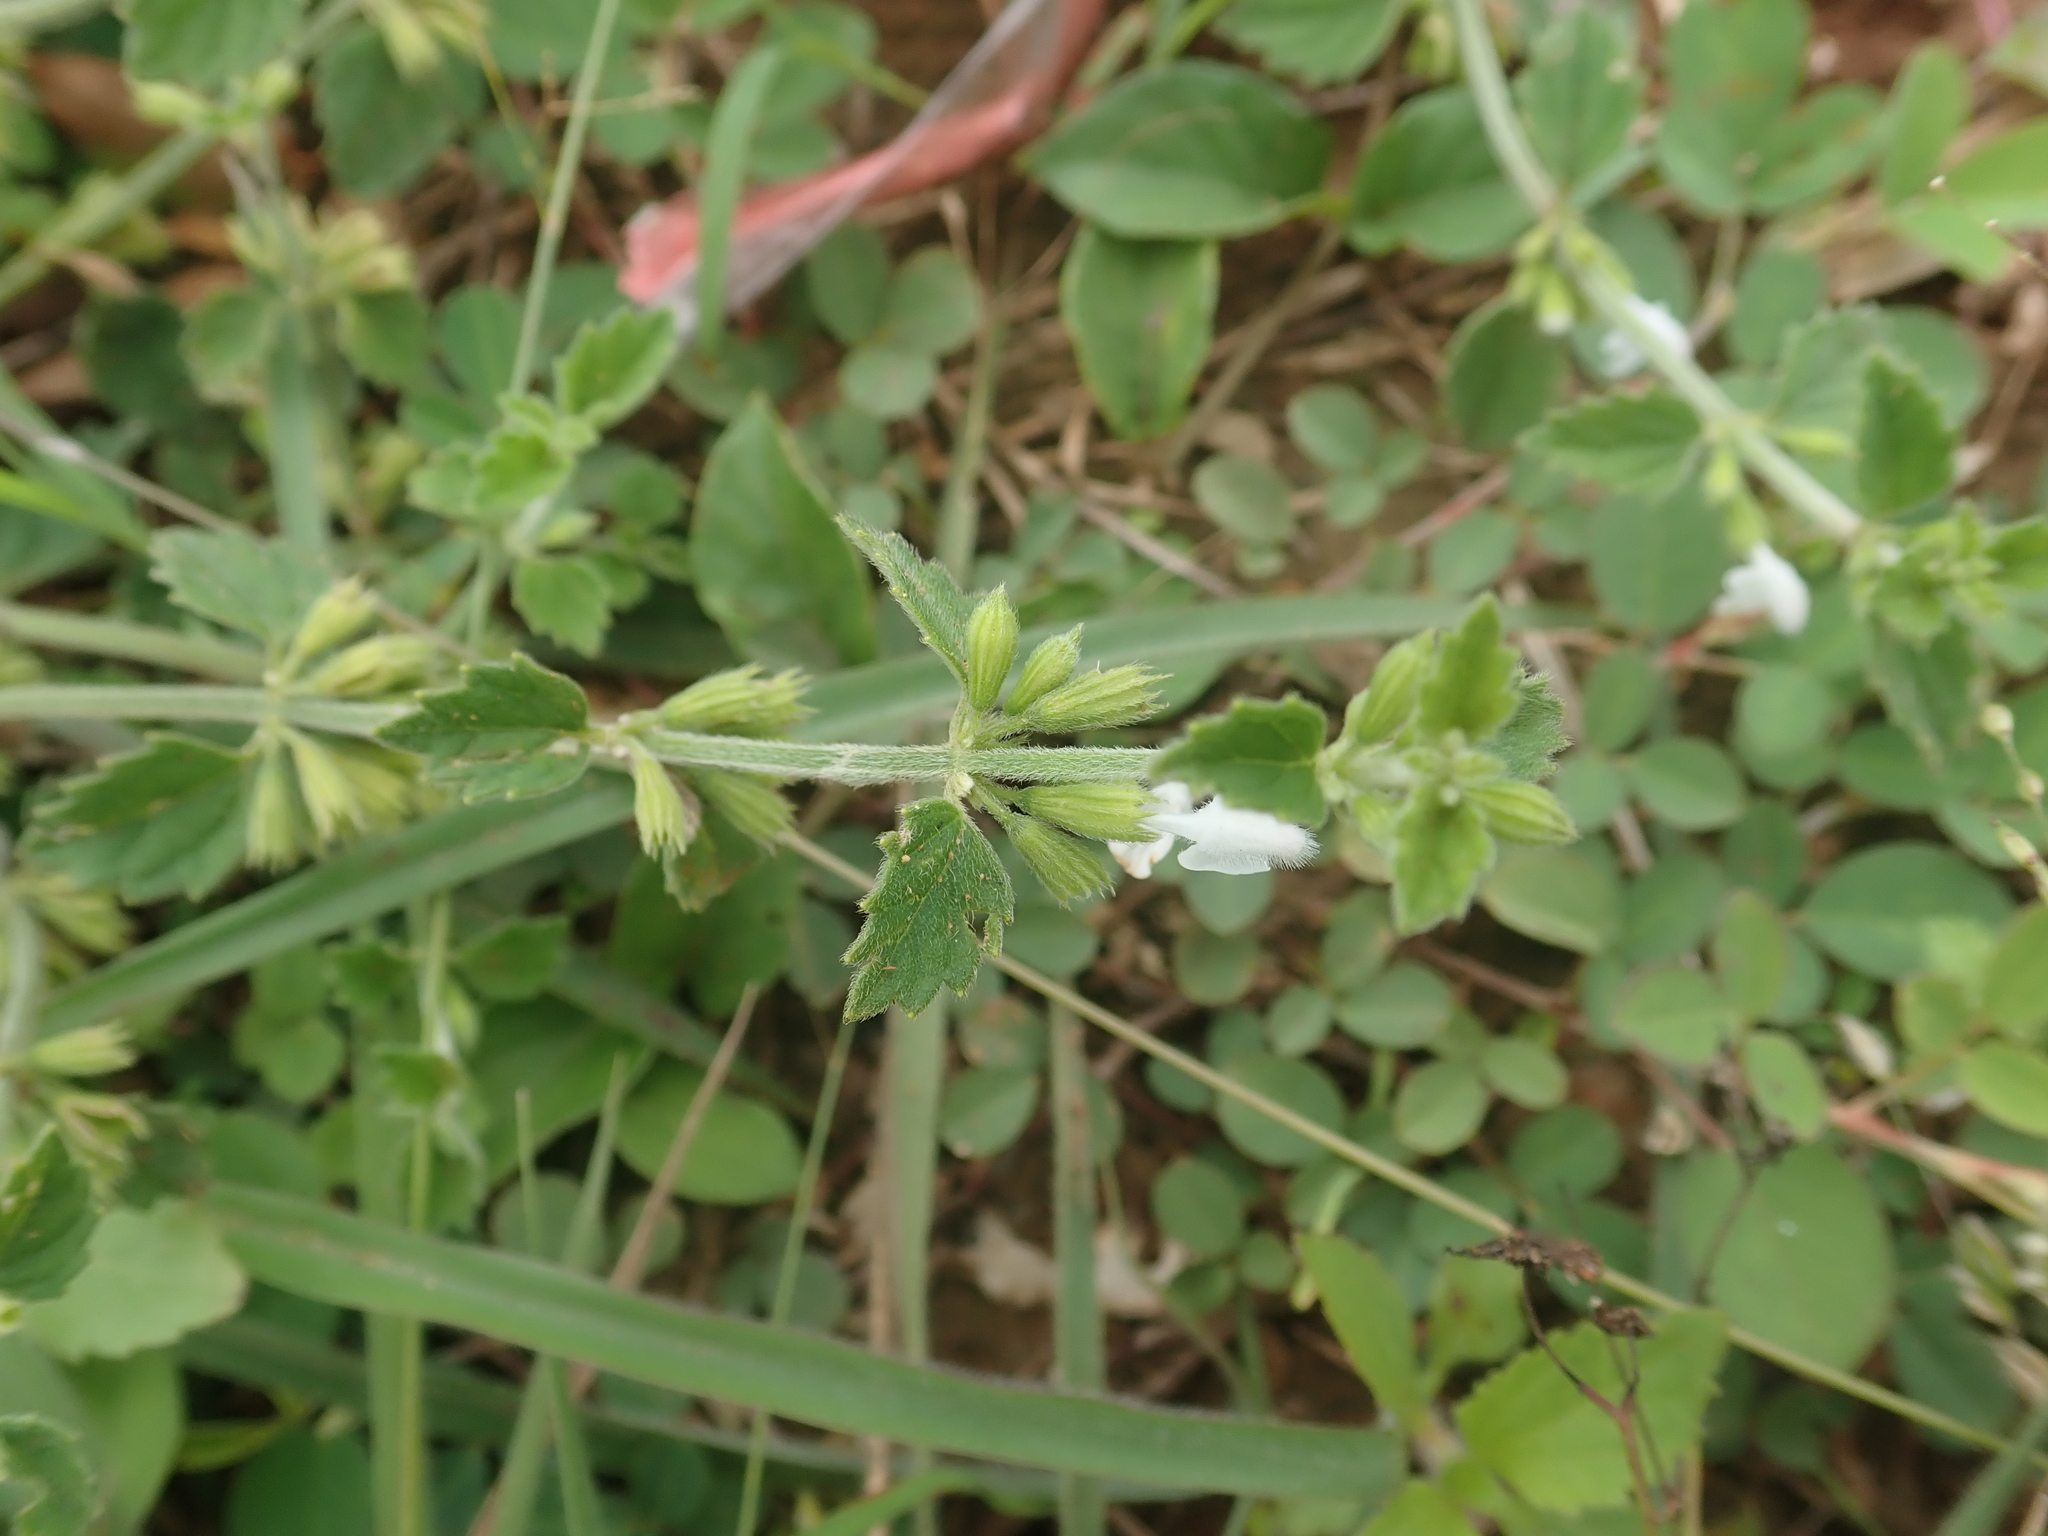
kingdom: Plantae
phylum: Tracheophyta
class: Magnoliopsida
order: Lamiales
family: Lamiaceae
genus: Leucas
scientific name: Leucas chinensis
